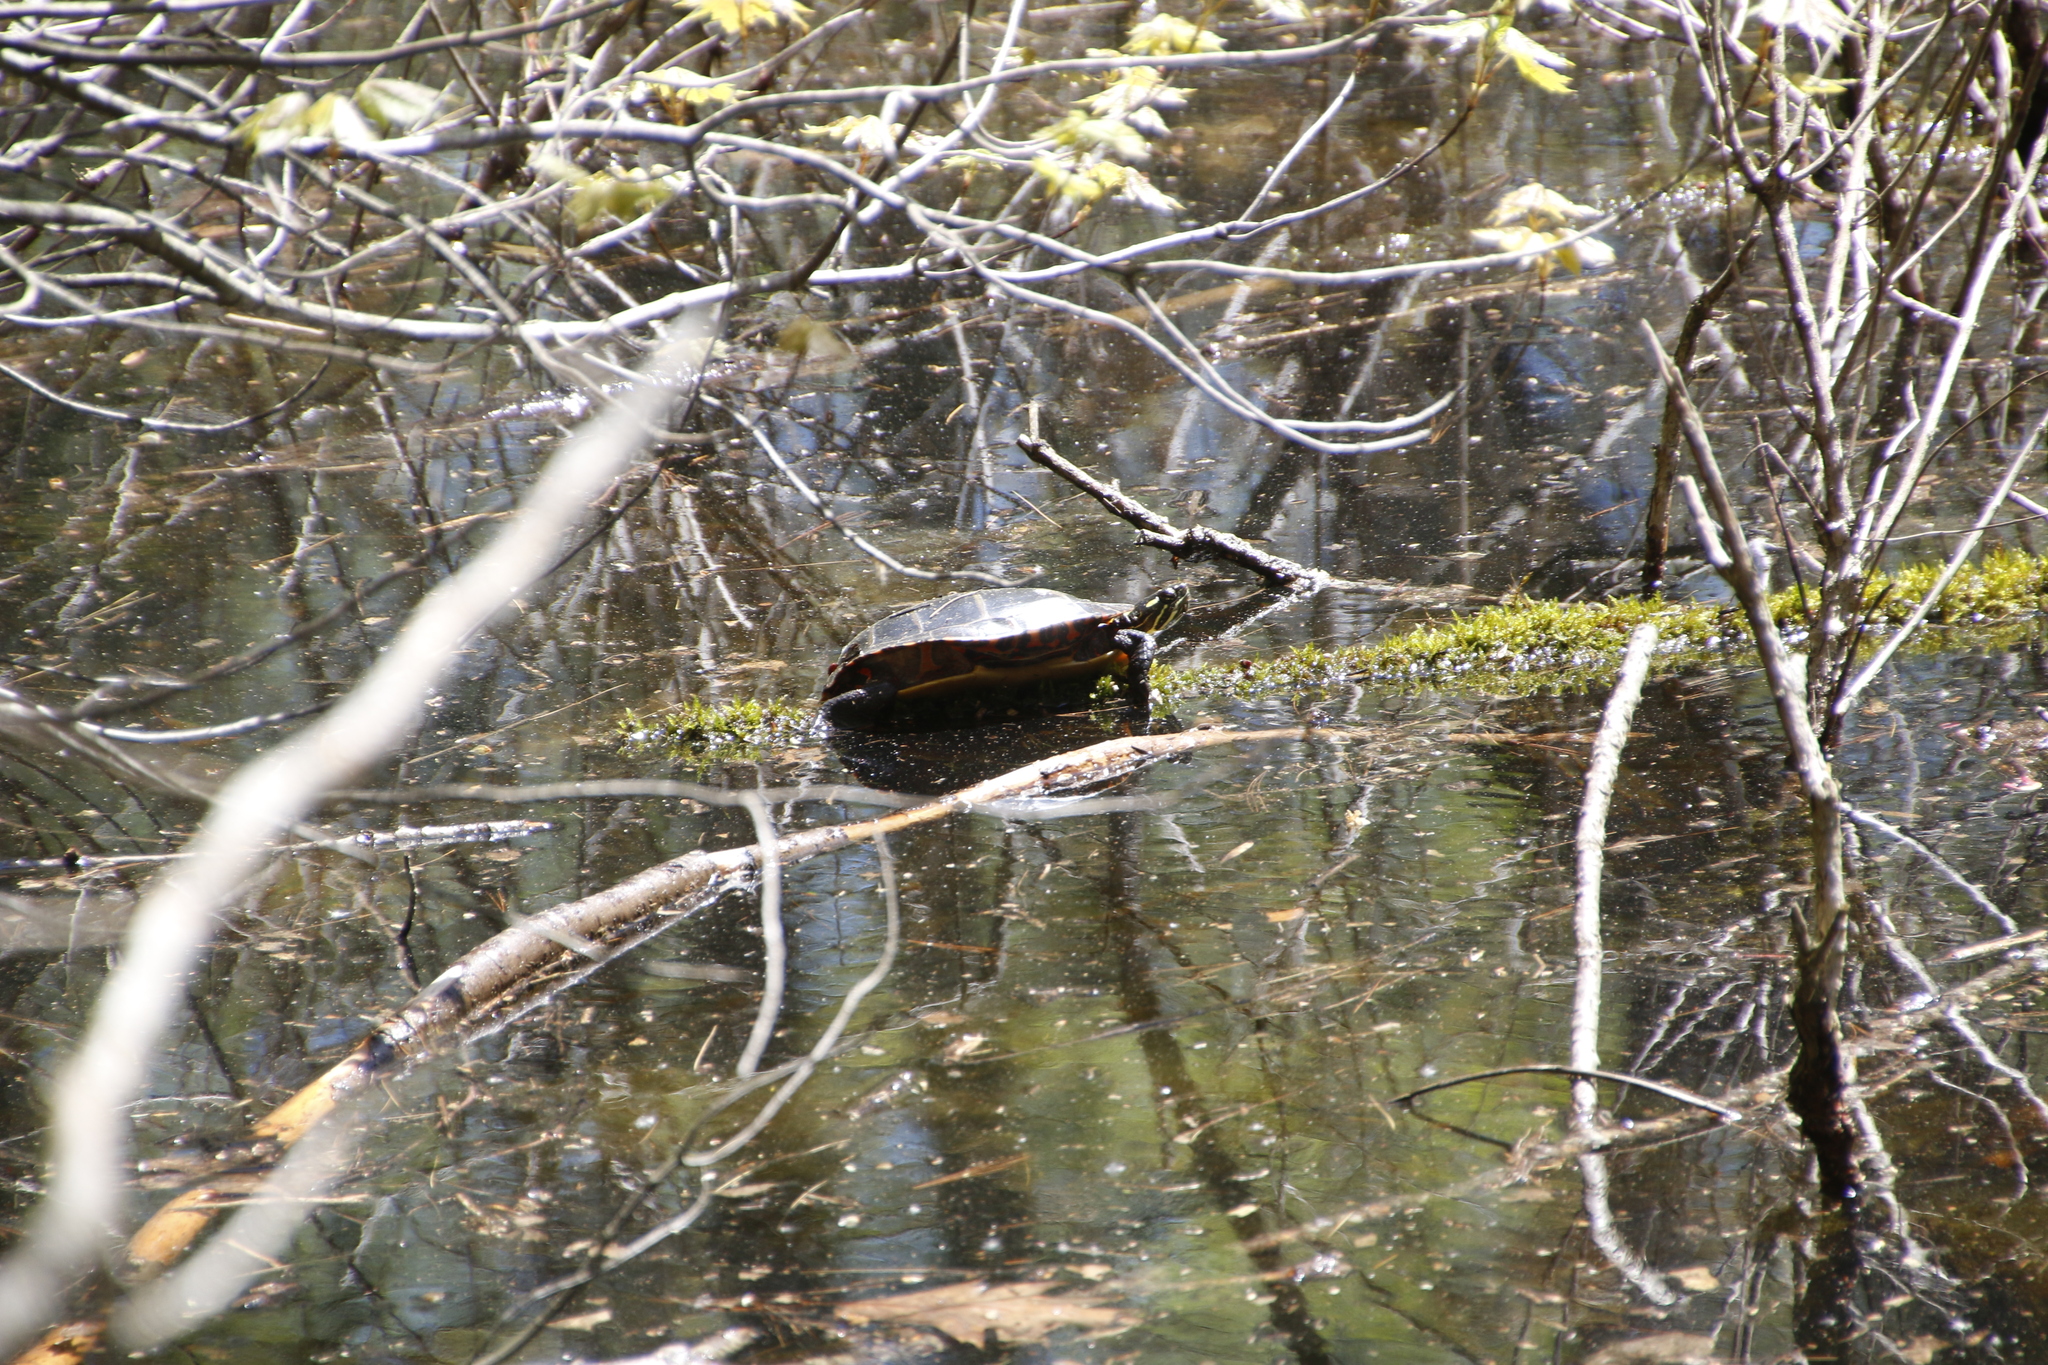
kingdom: Animalia
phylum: Chordata
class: Testudines
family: Emydidae
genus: Chrysemys
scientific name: Chrysemys picta
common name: Painted turtle
